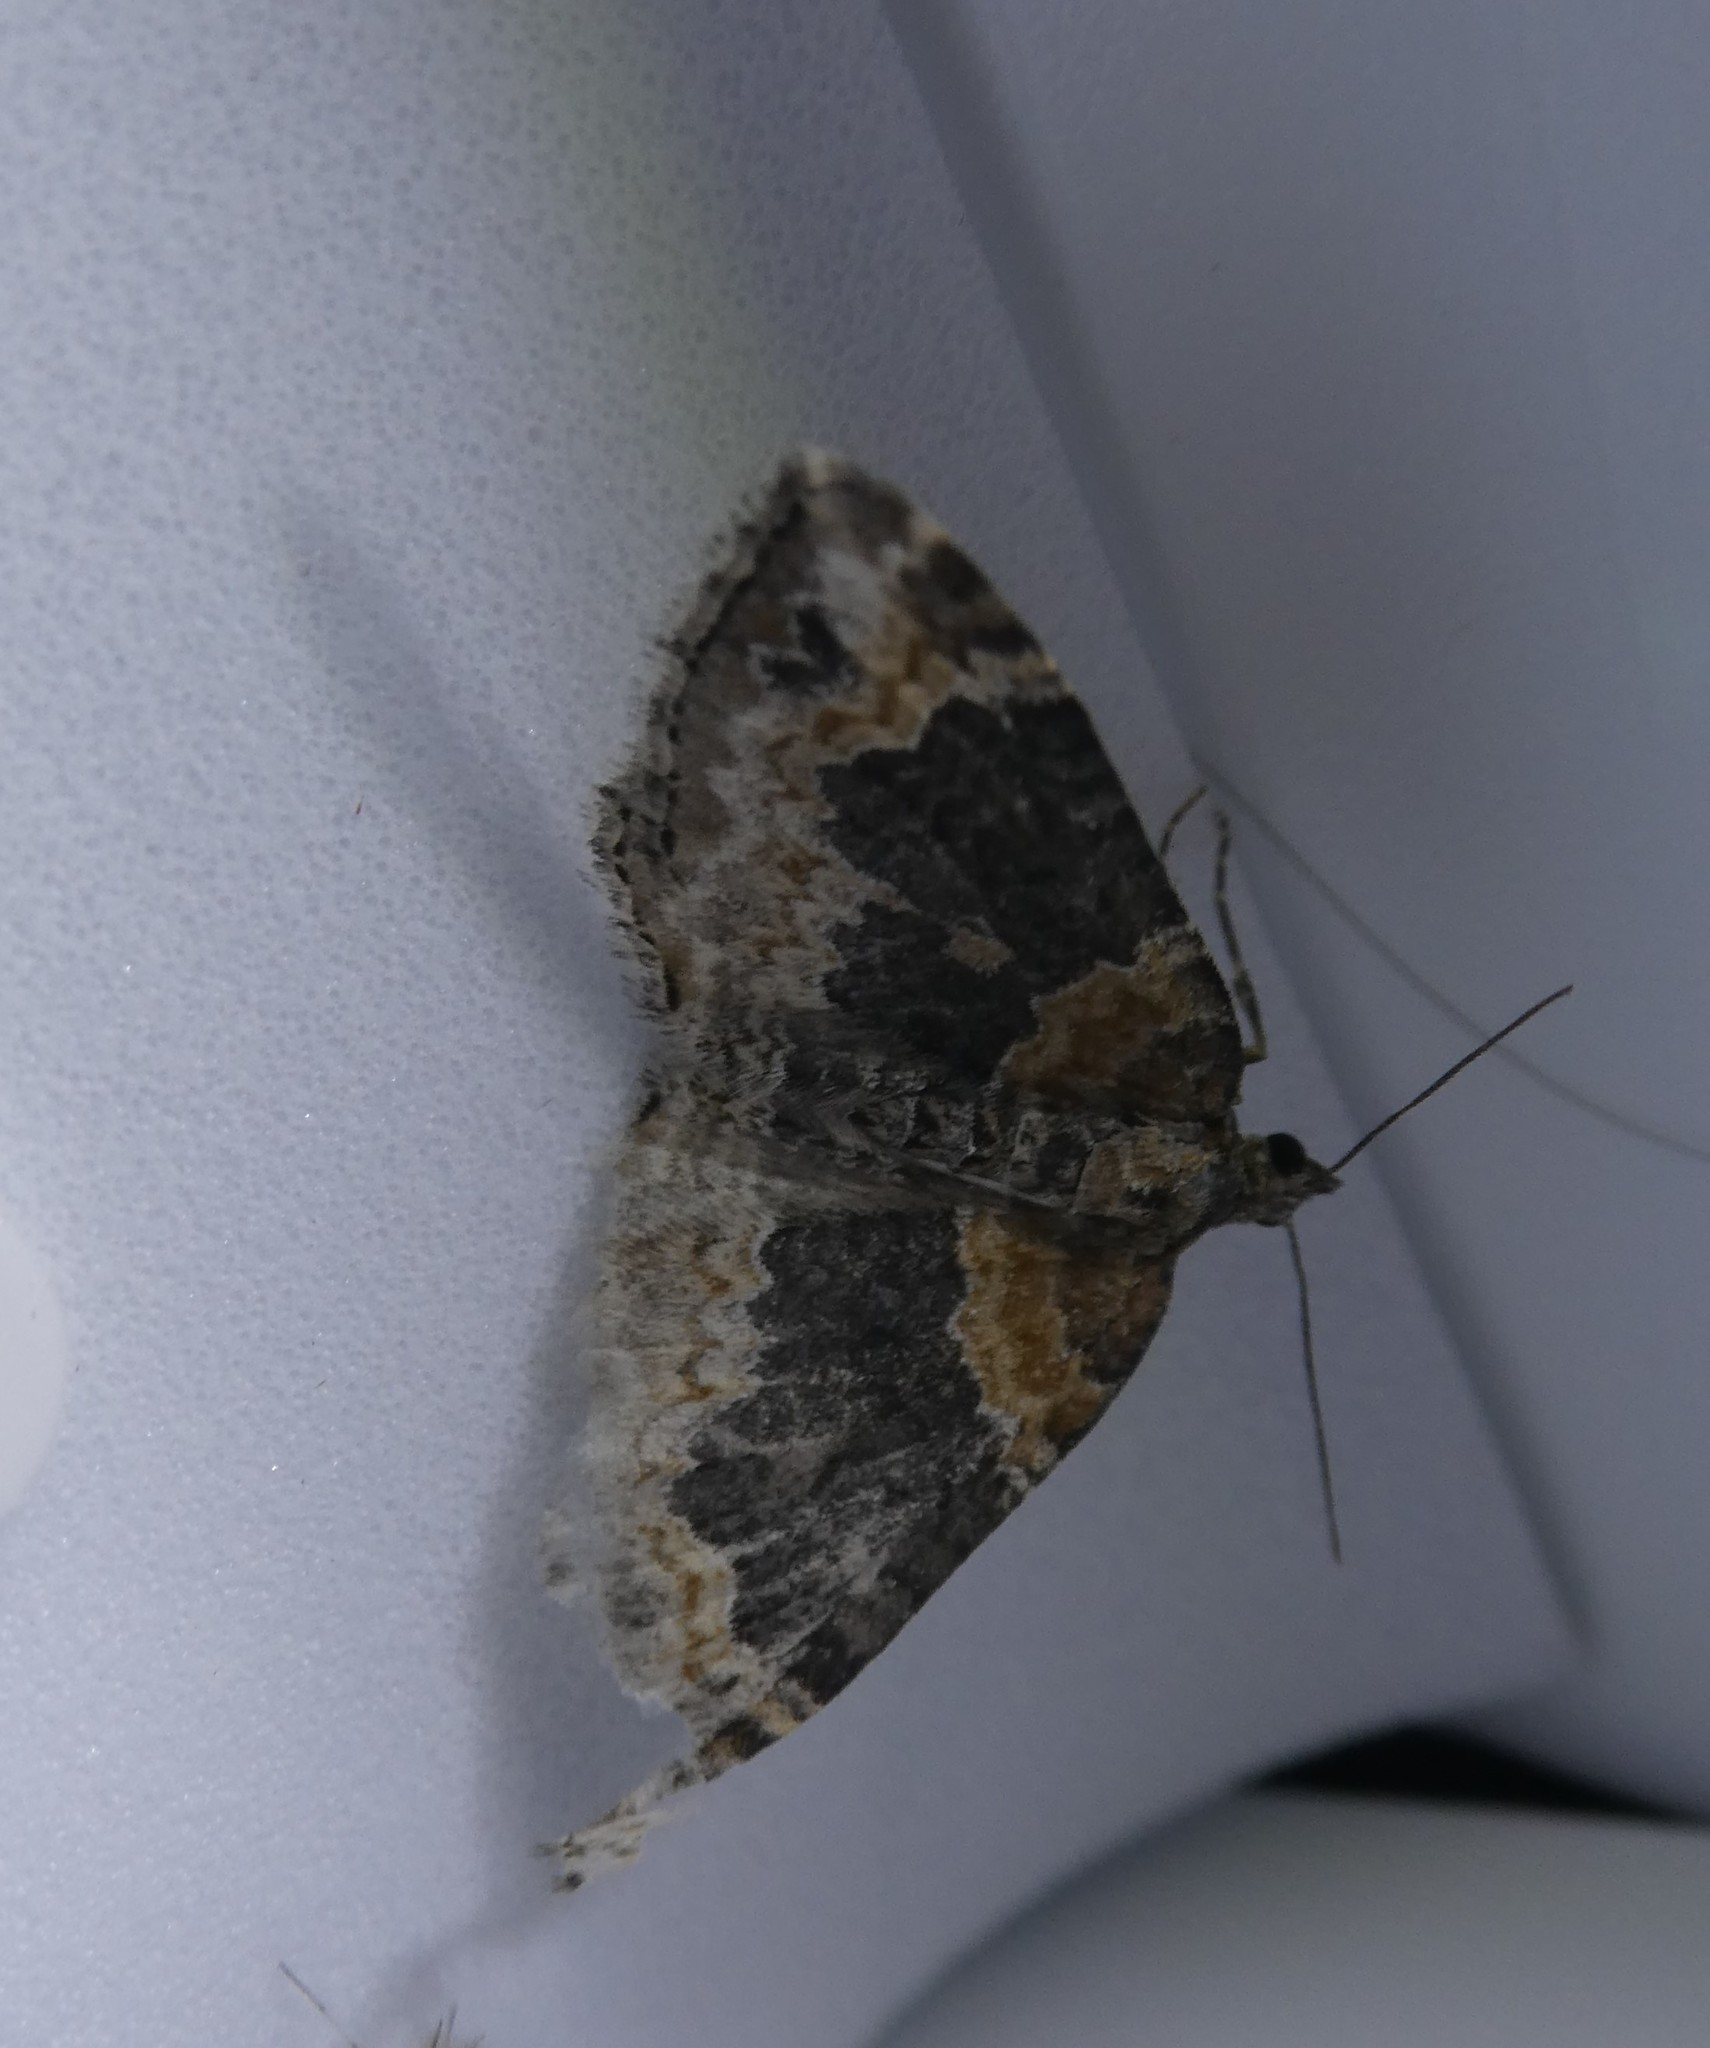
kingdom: Animalia
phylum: Arthropoda
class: Insecta
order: Lepidoptera
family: Geometridae
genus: Xanthorhoe
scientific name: Xanthorhoe ferrugata
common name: Dark-barred twin-spot carpet
